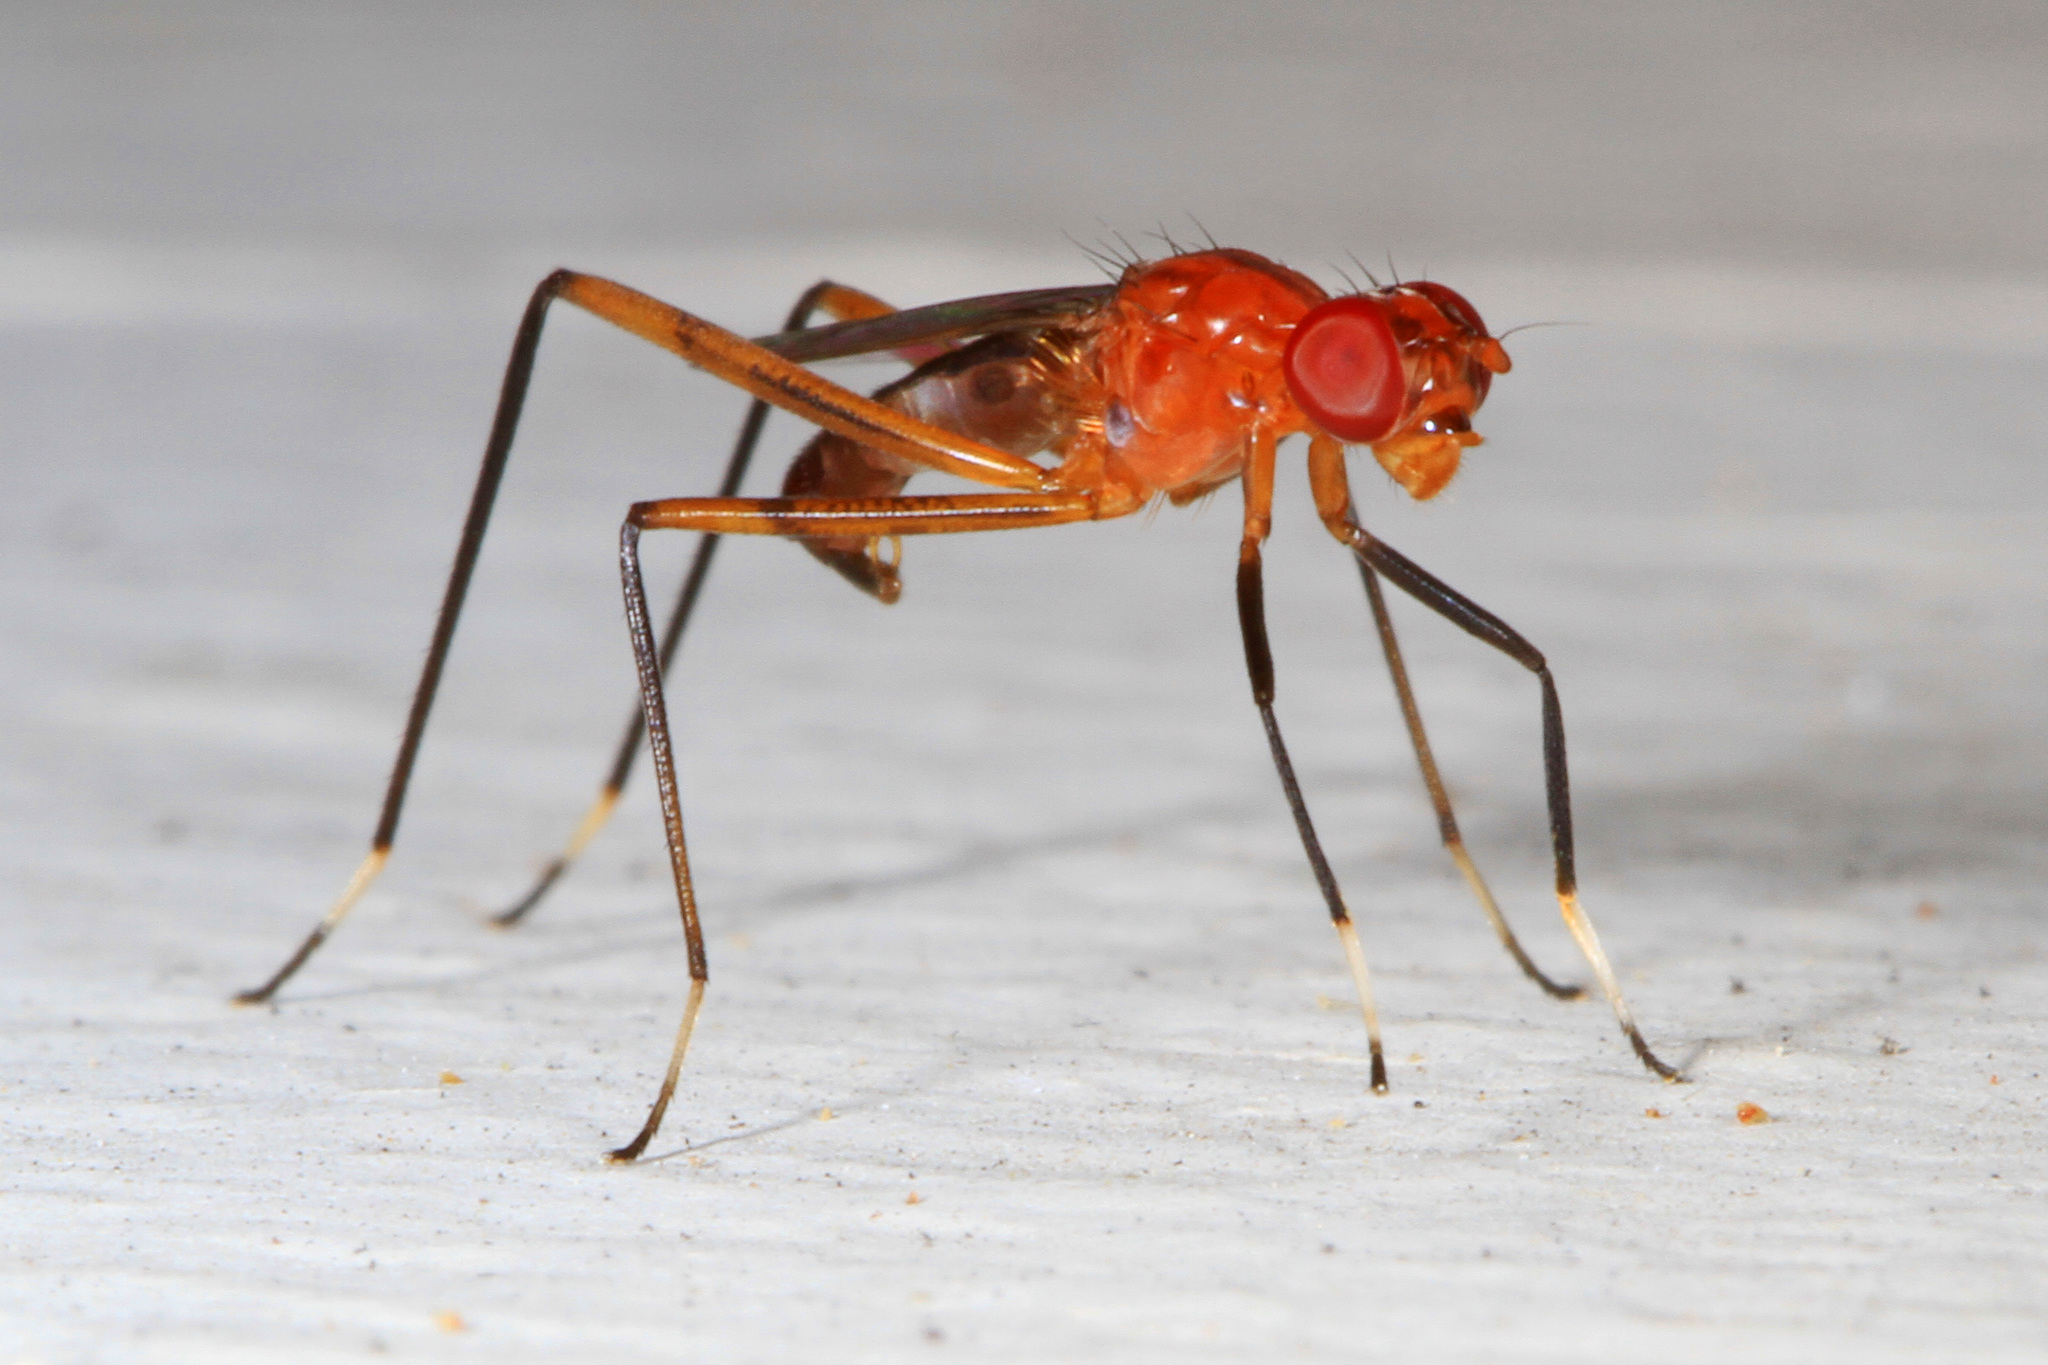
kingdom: Animalia
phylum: Arthropoda
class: Insecta
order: Diptera
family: Micropezidae
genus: Grallipeza
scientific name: Grallipeza nebulosa
